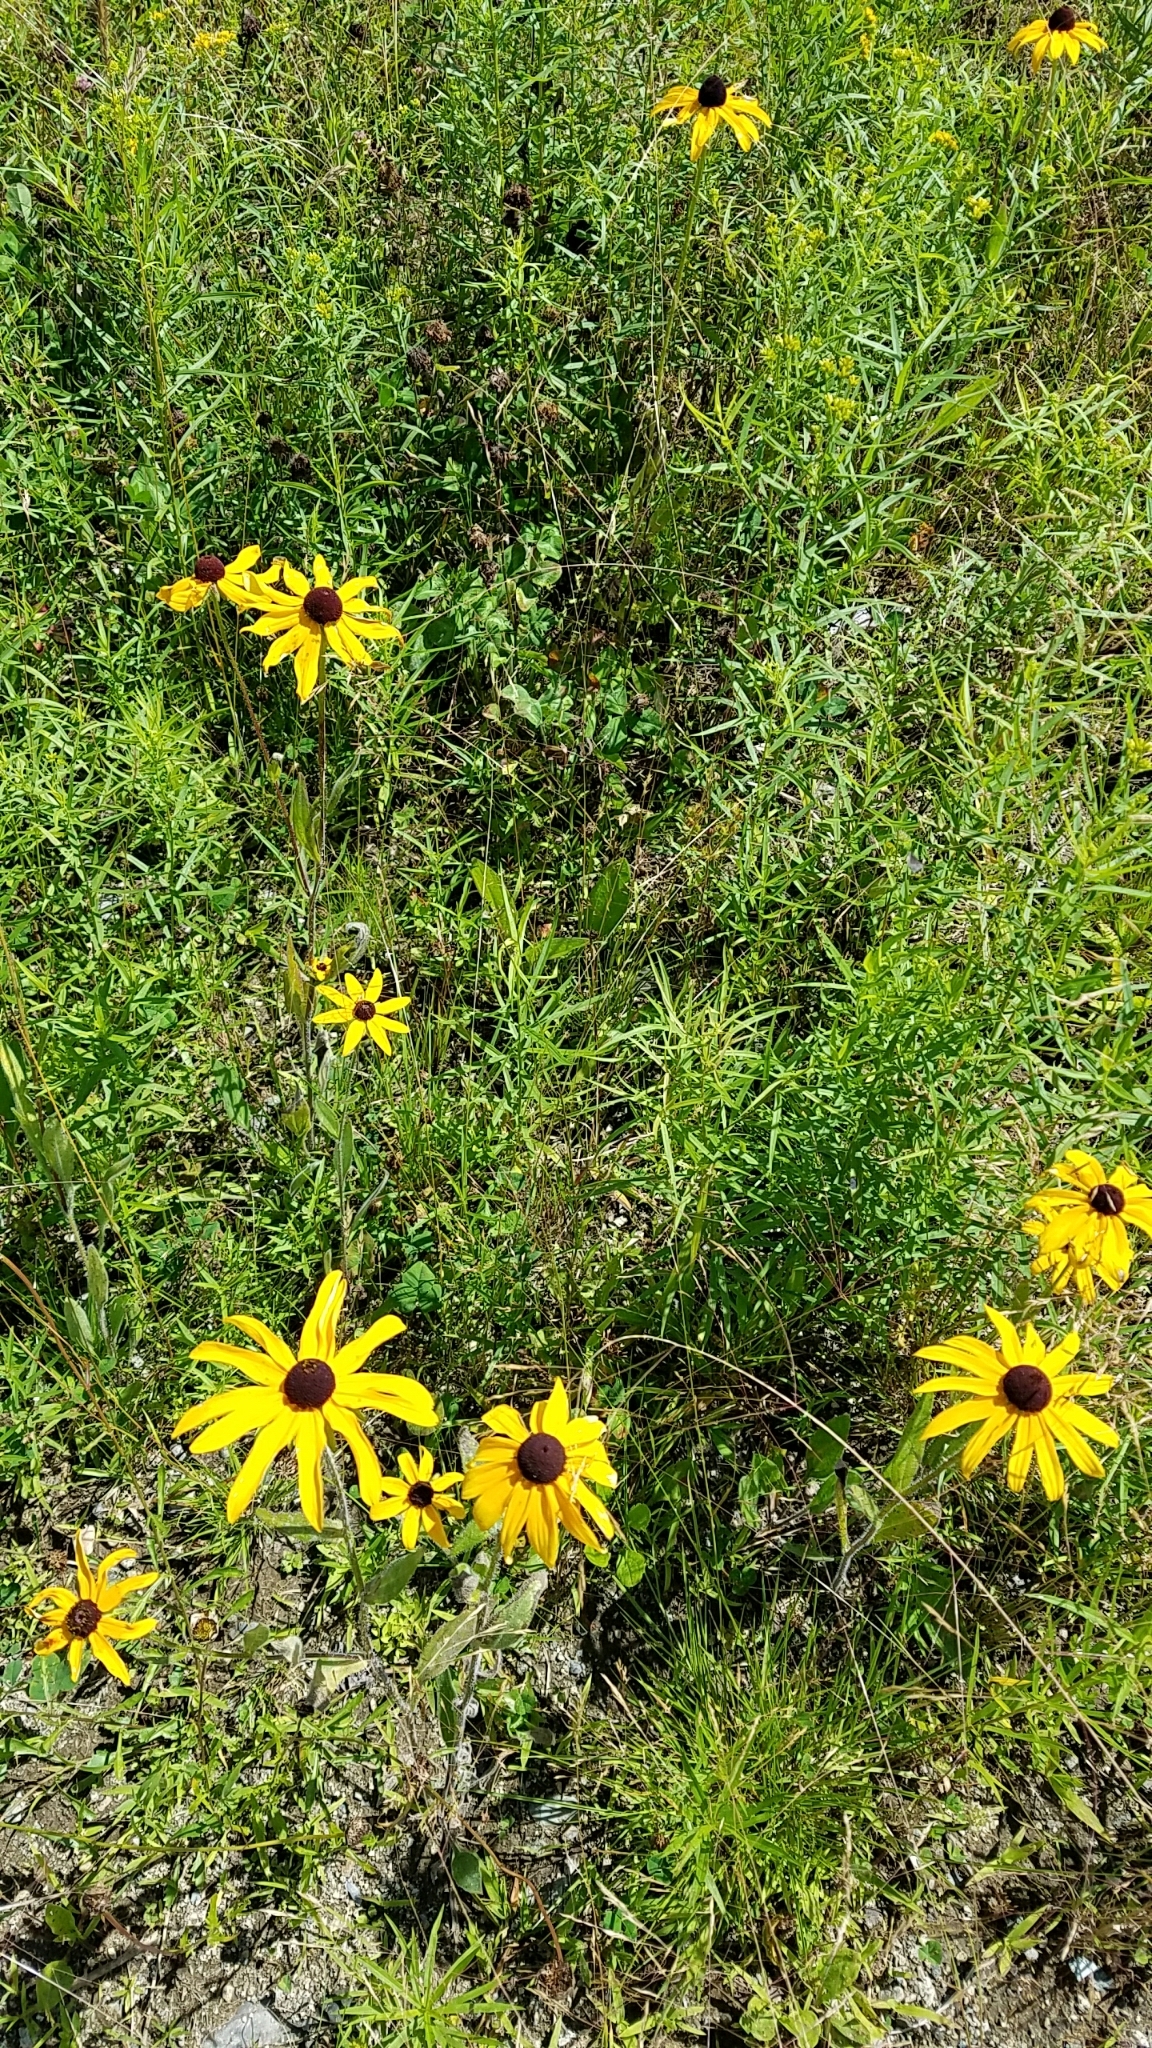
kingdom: Plantae
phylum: Tracheophyta
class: Magnoliopsida
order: Asterales
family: Asteraceae
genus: Rudbeckia
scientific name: Rudbeckia hirta
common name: Black-eyed-susan
